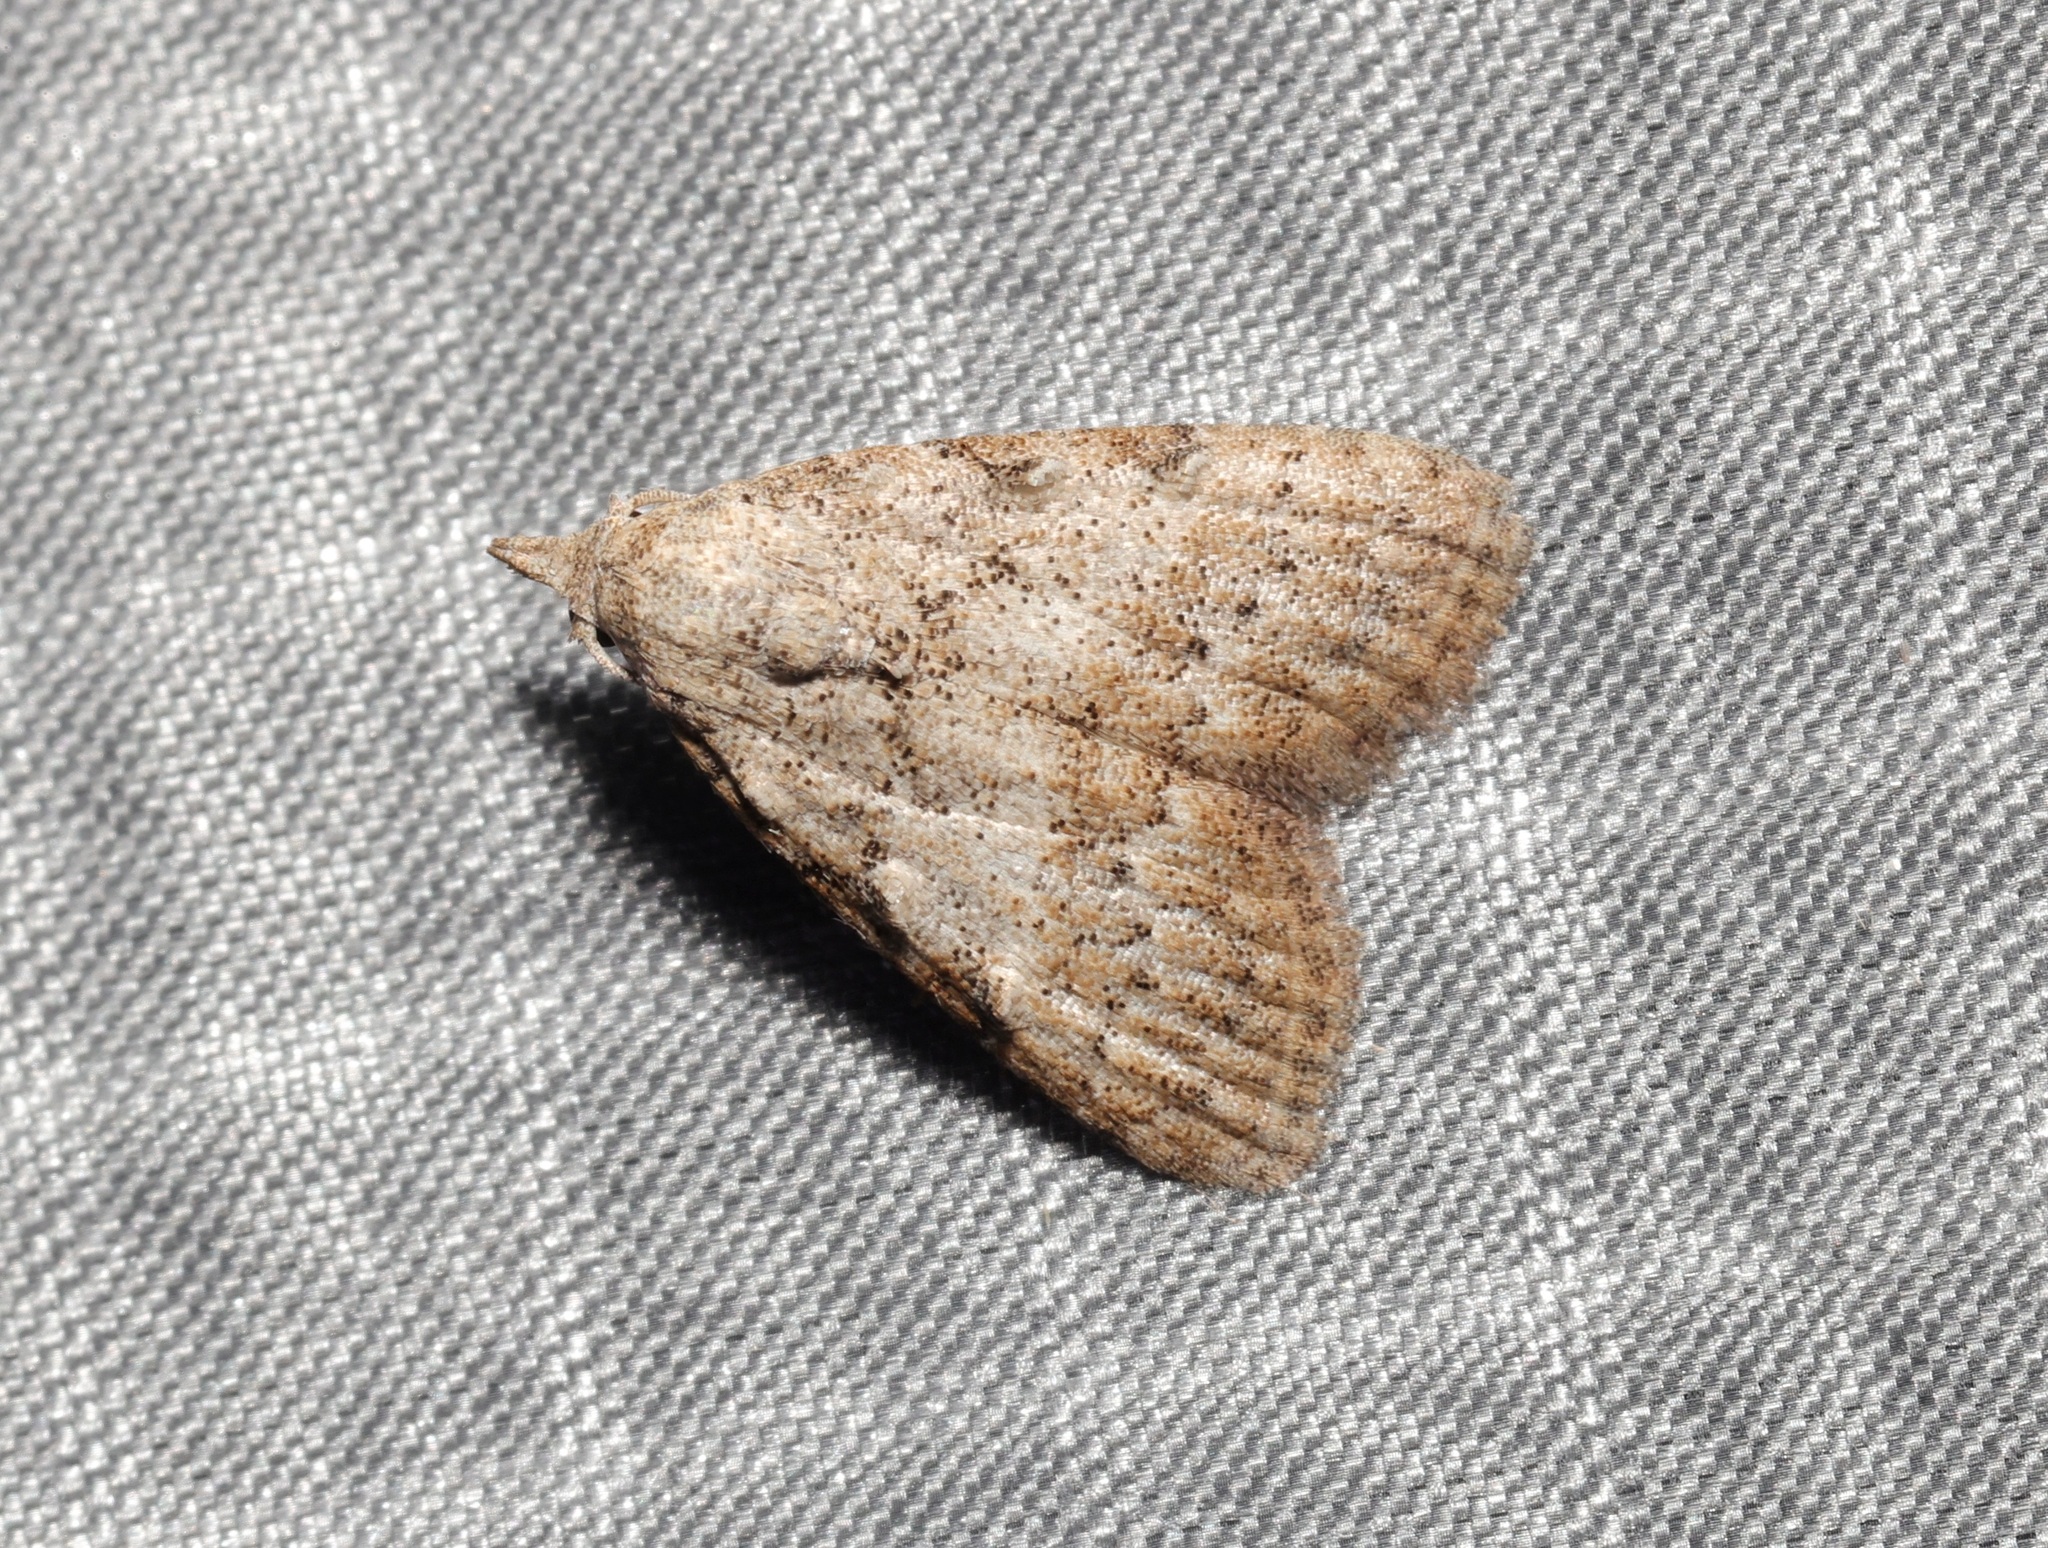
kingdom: Animalia
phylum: Arthropoda
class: Insecta
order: Lepidoptera
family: Nolidae
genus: Nola
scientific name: Nola ceylonica
